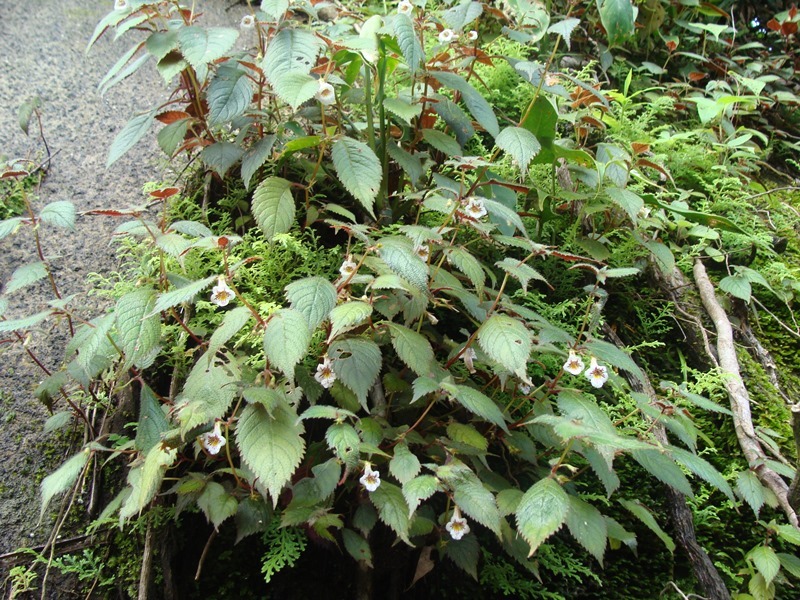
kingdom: Plantae
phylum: Tracheophyta
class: Magnoliopsida
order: Lamiales
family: Gesneriaceae
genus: Achimenes
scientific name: Achimenes candida
